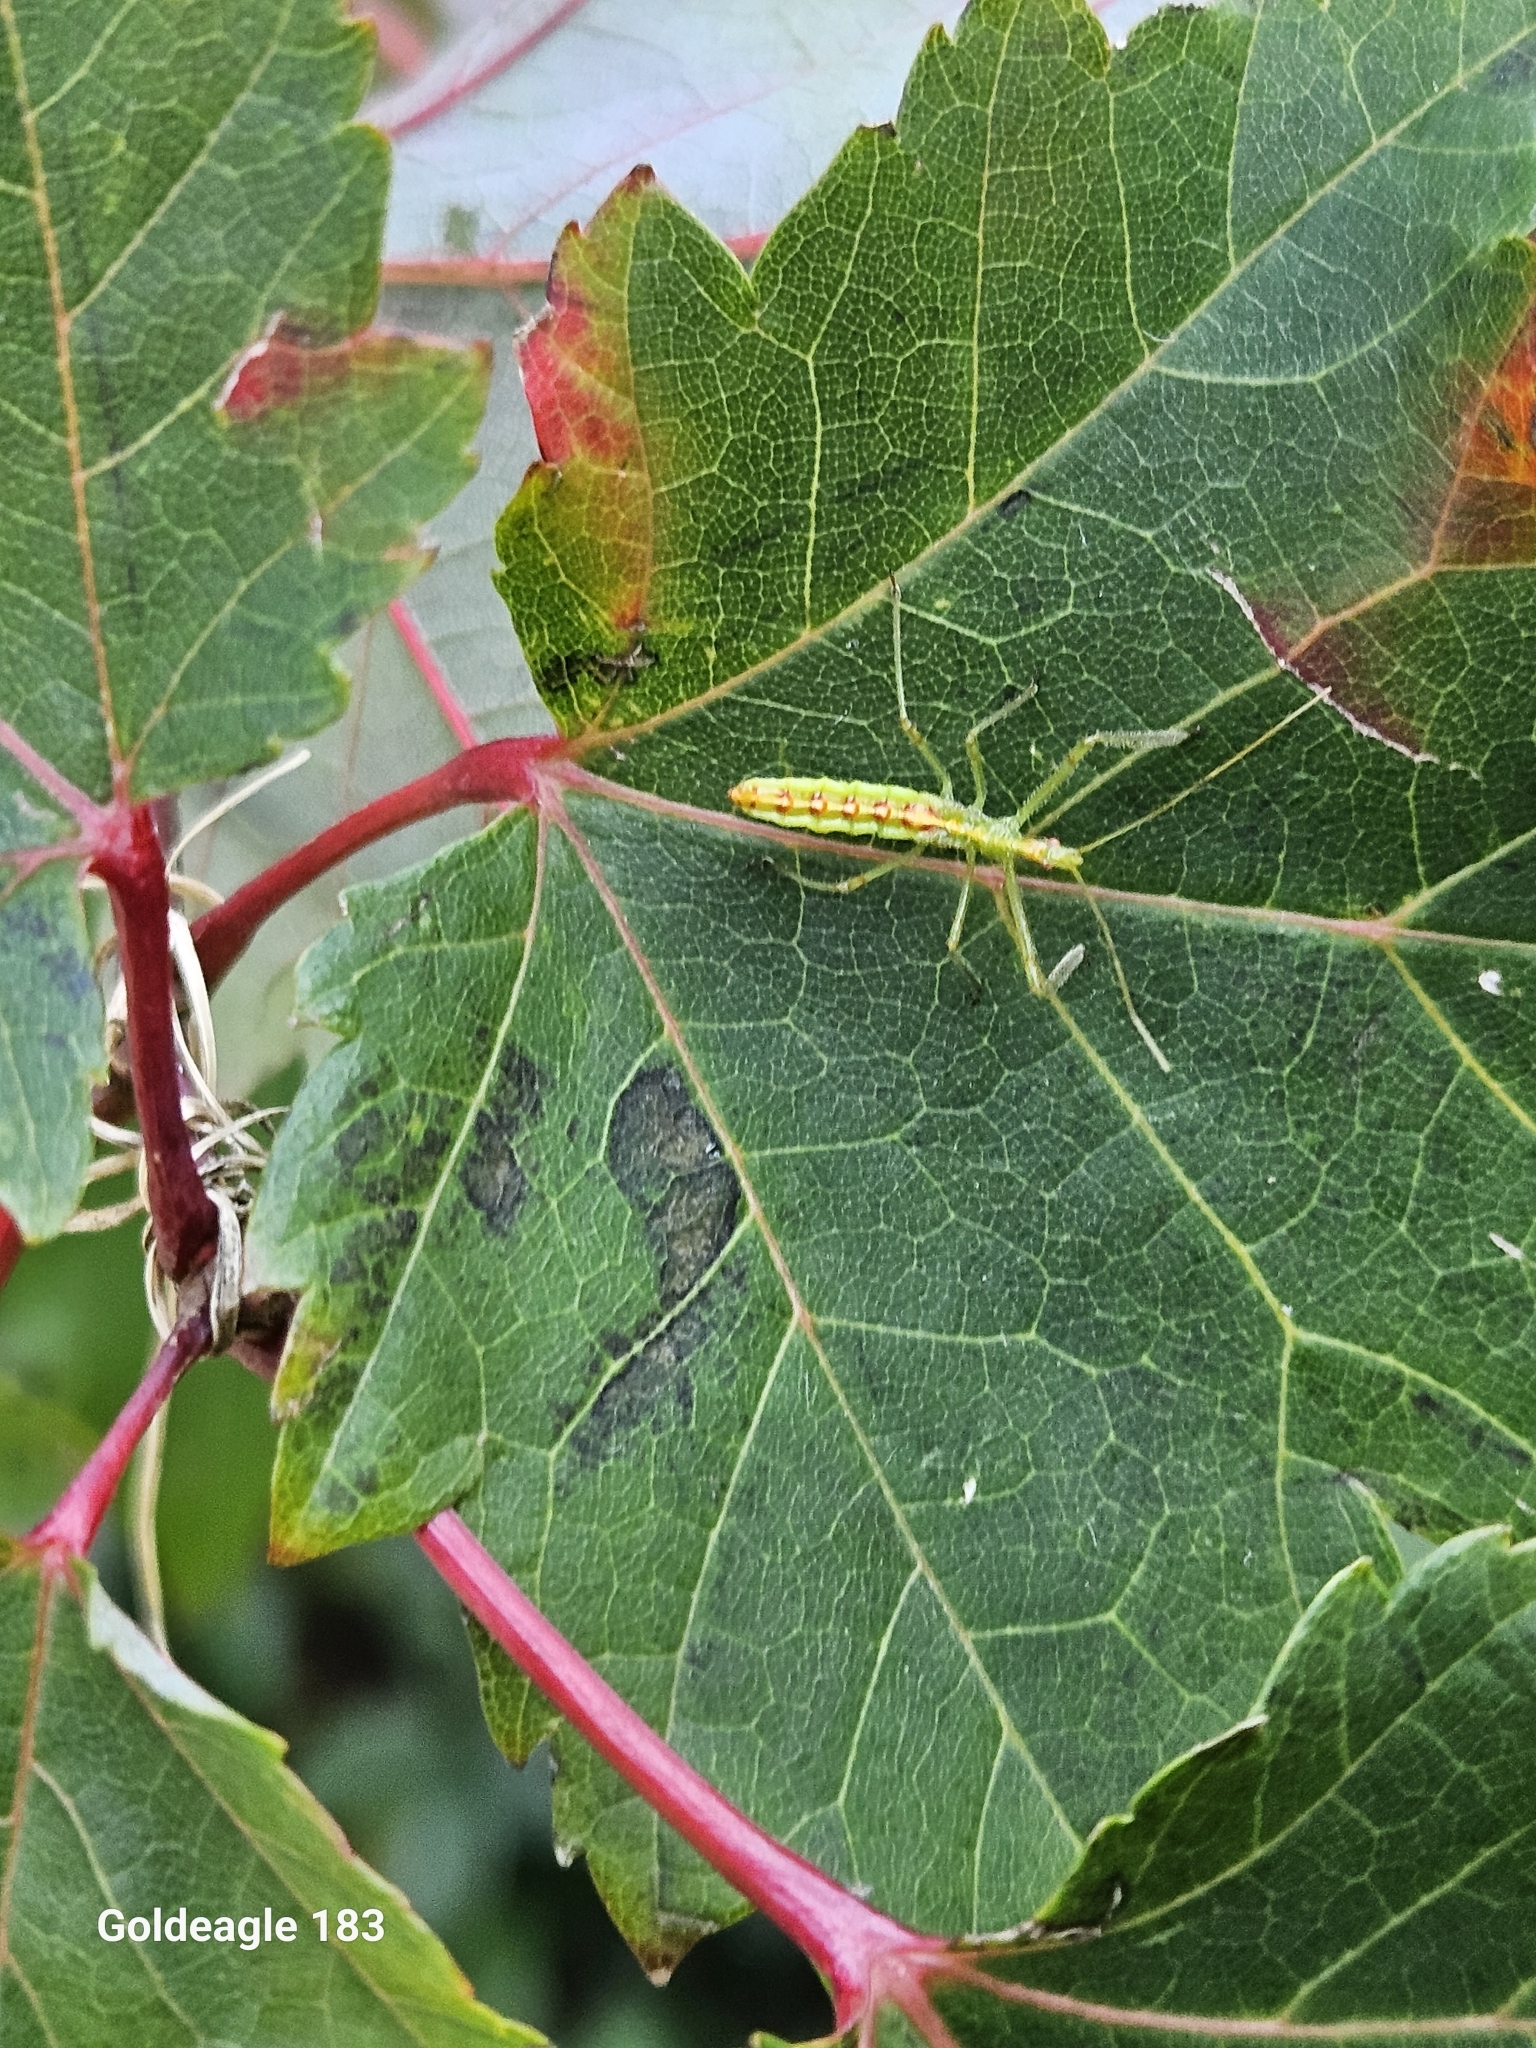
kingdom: Animalia
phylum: Arthropoda
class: Insecta
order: Hemiptera
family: Reduviidae
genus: Zelus
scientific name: Zelus luridus
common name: Pale green assassin bug
